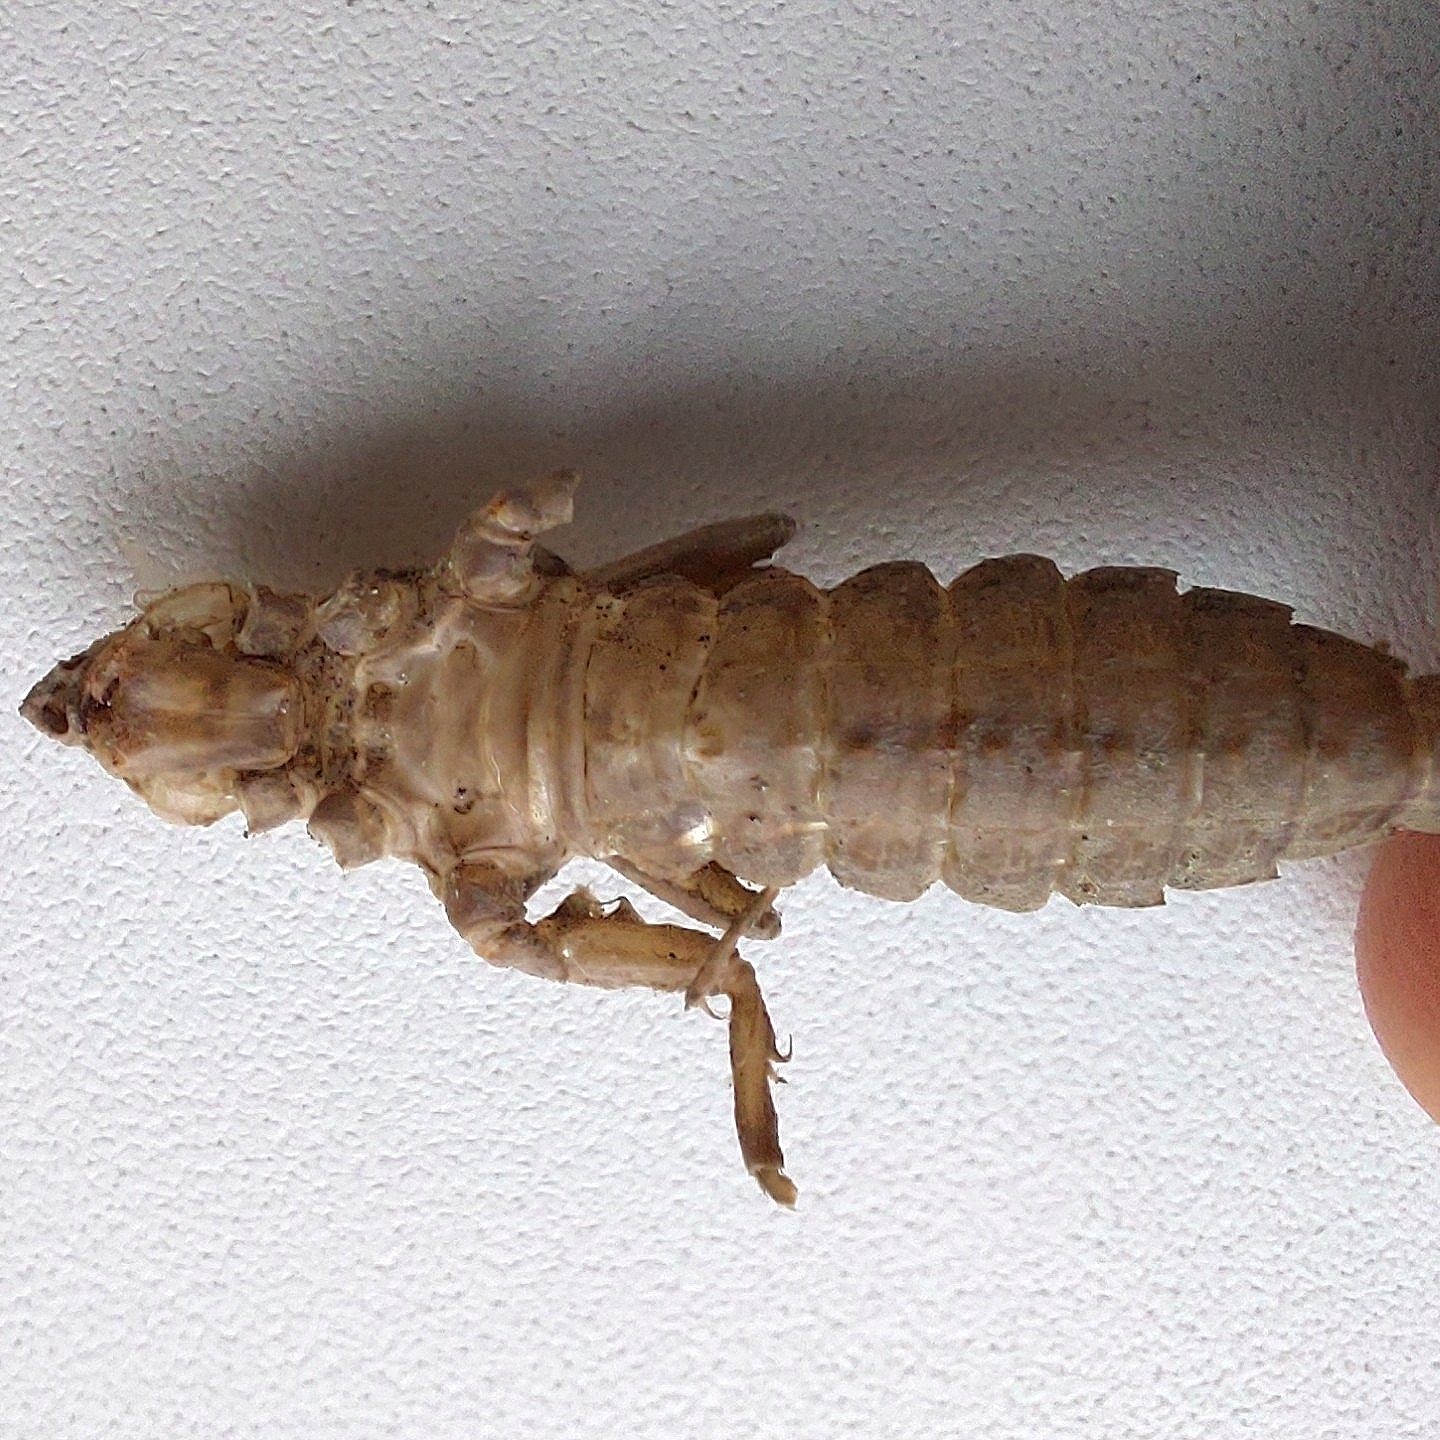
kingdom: Animalia
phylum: Arthropoda
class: Insecta
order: Odonata
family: Gomphidae
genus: Stylurus
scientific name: Stylurus flavipes
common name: River clubtail
